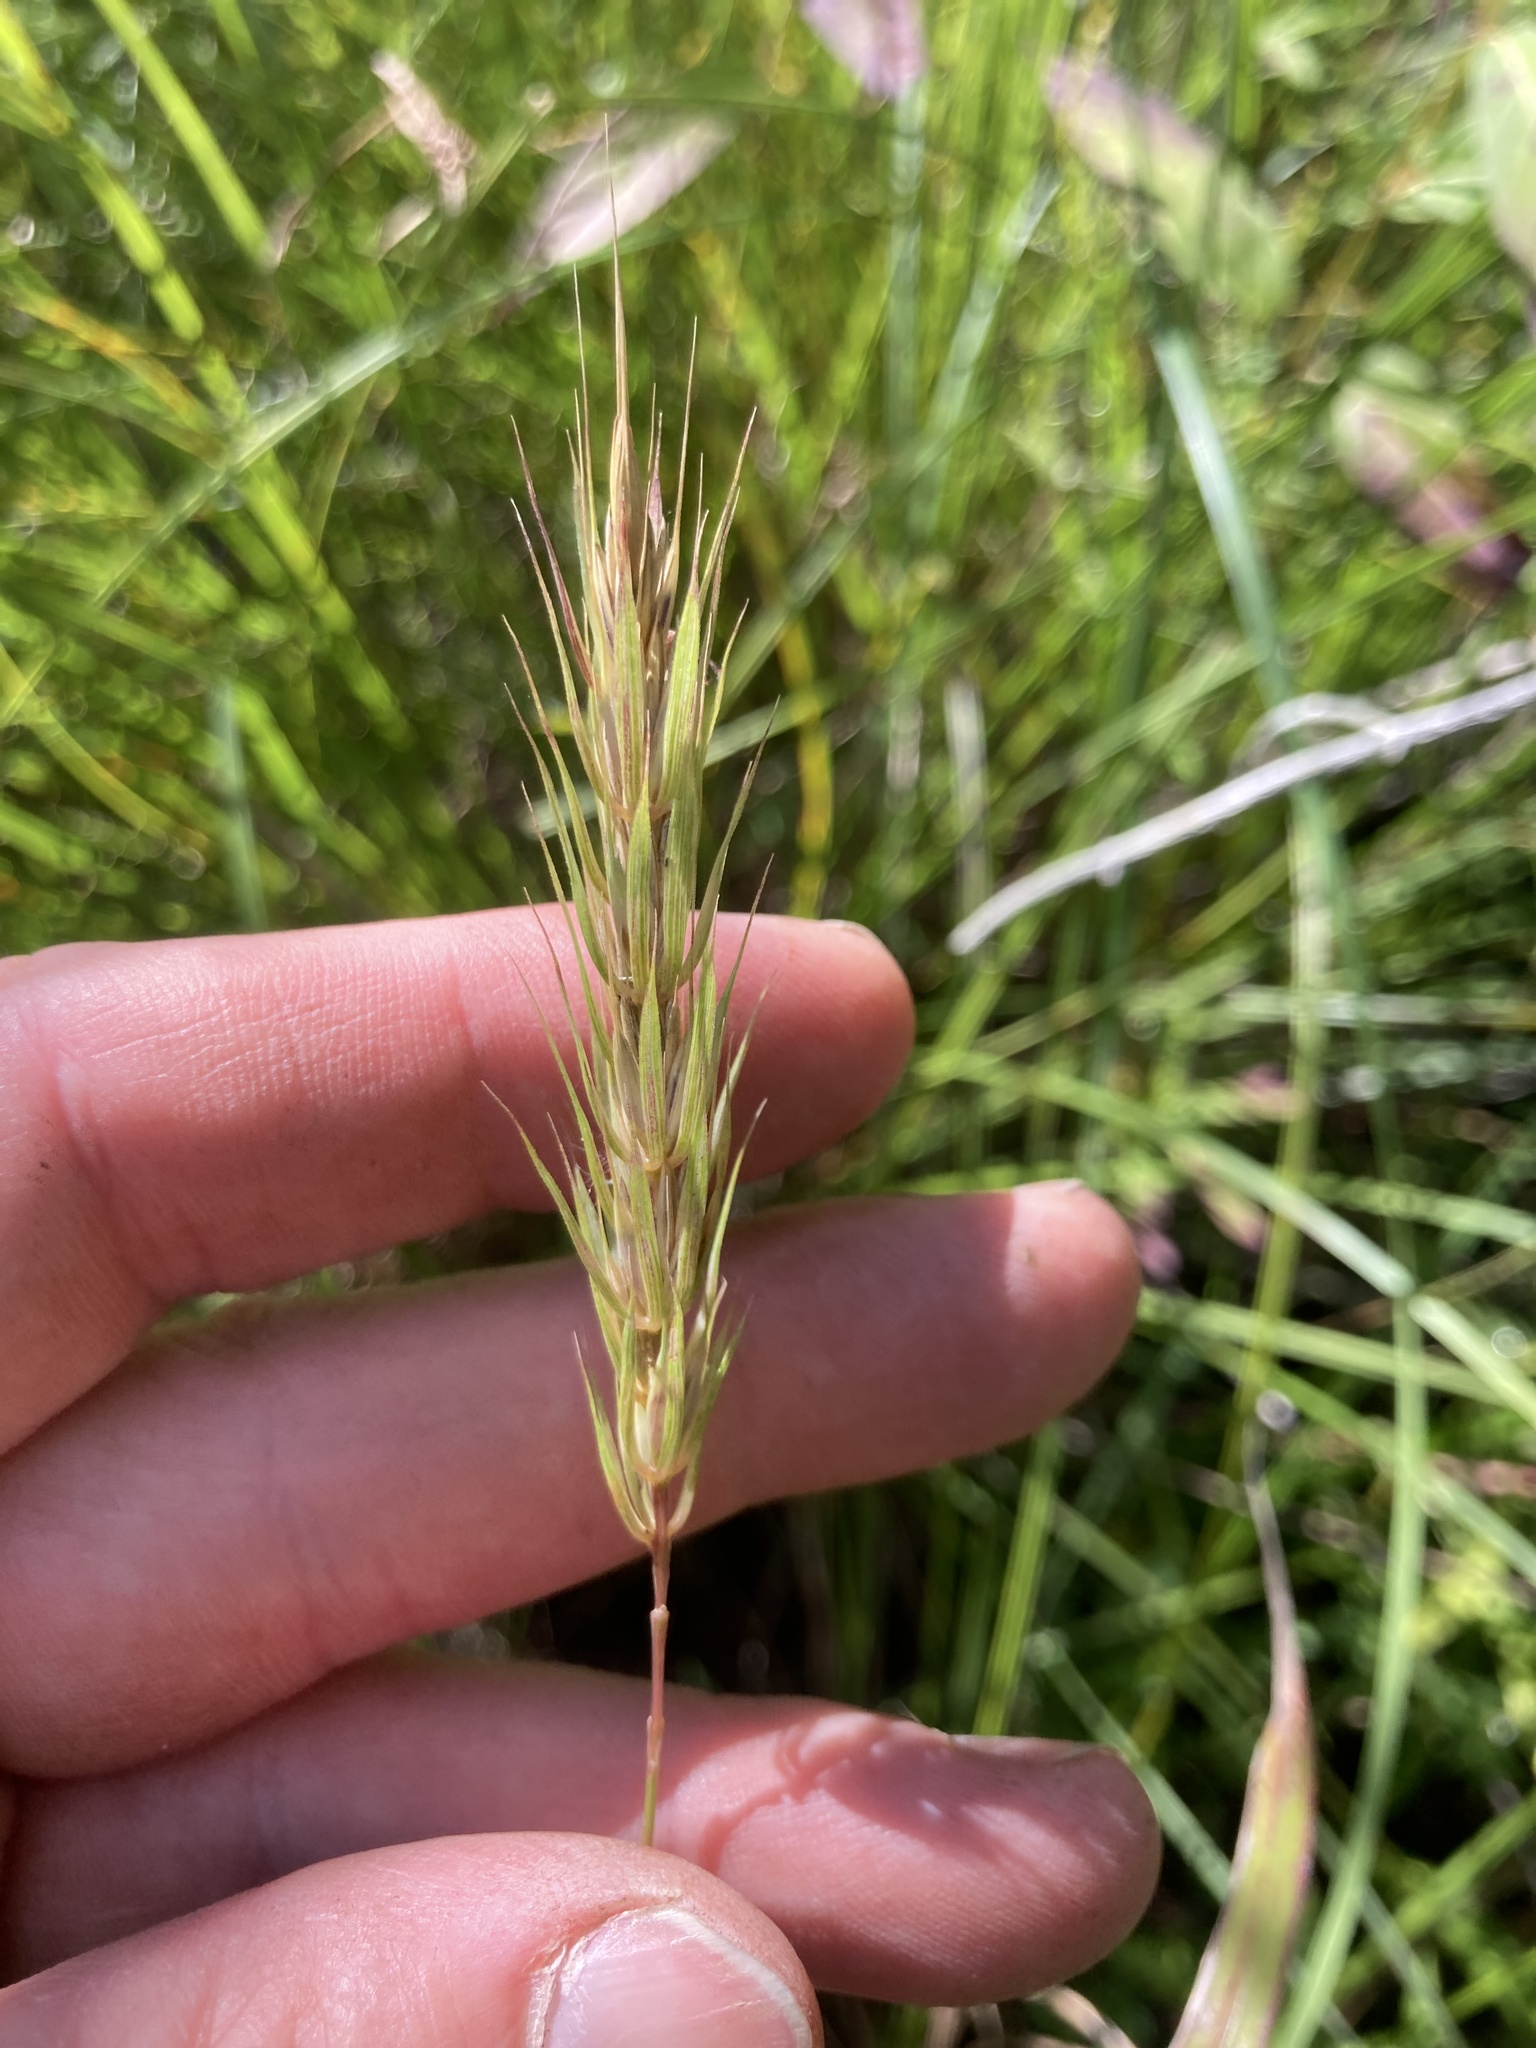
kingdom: Plantae
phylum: Tracheophyta
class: Liliopsida
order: Poales
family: Poaceae
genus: Elymus
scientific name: Elymus virginicus
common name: Common eastern wildrye
